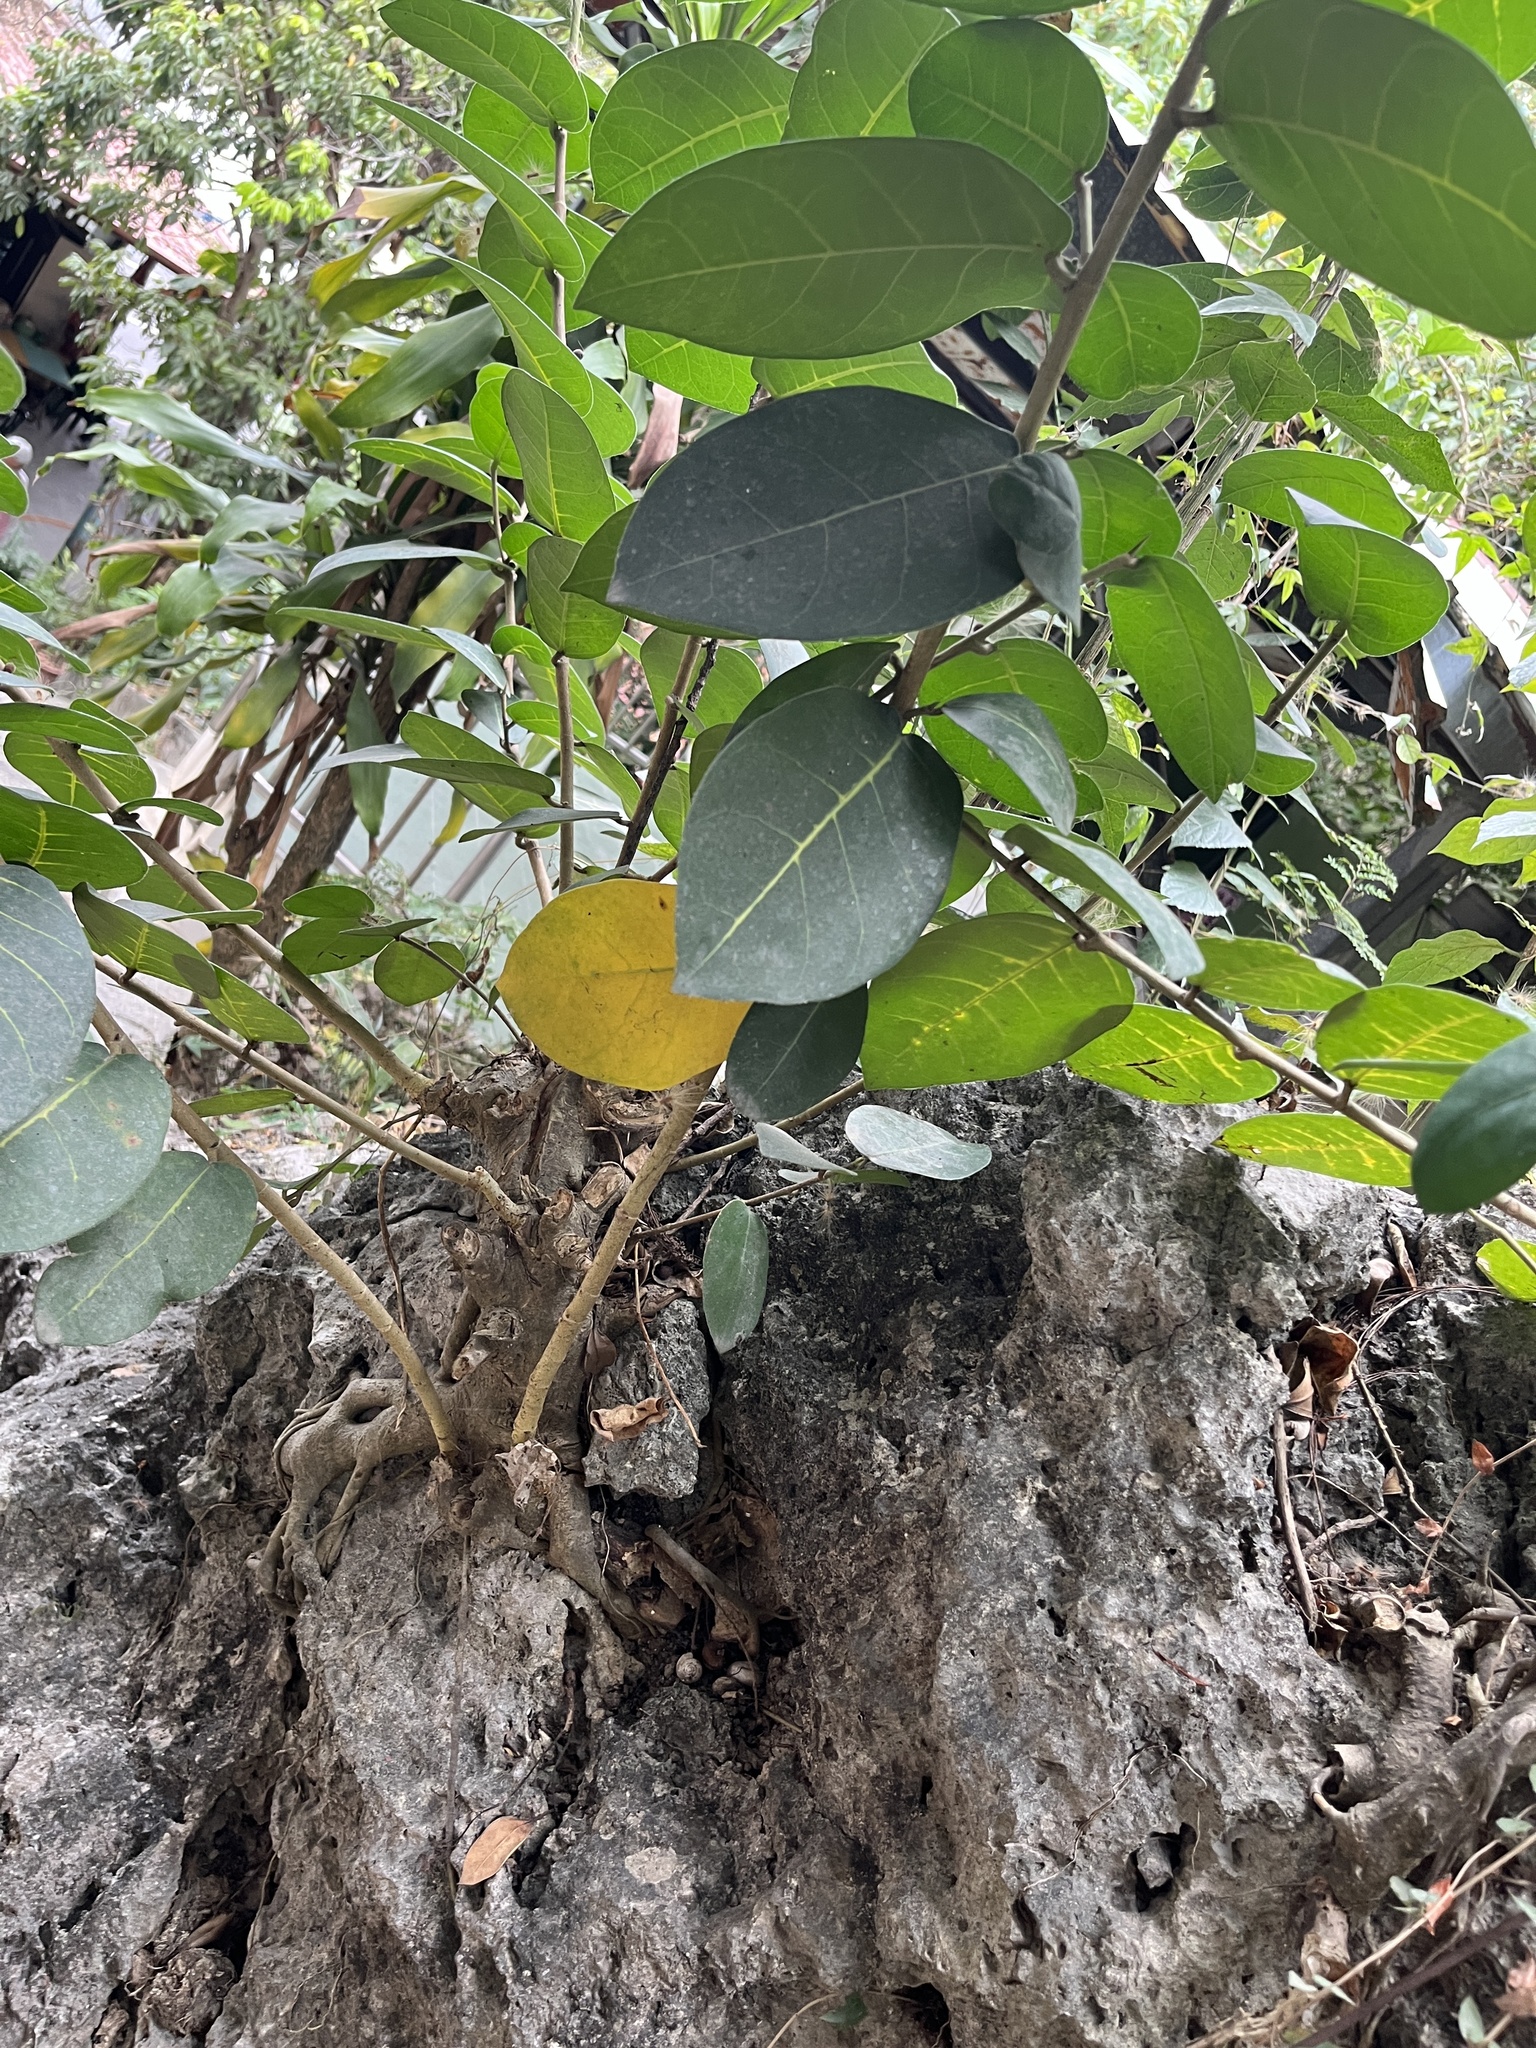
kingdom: Plantae
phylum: Tracheophyta
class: Magnoliopsida
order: Rosales
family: Moraceae
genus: Ficus
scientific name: Ficus tinctoria
